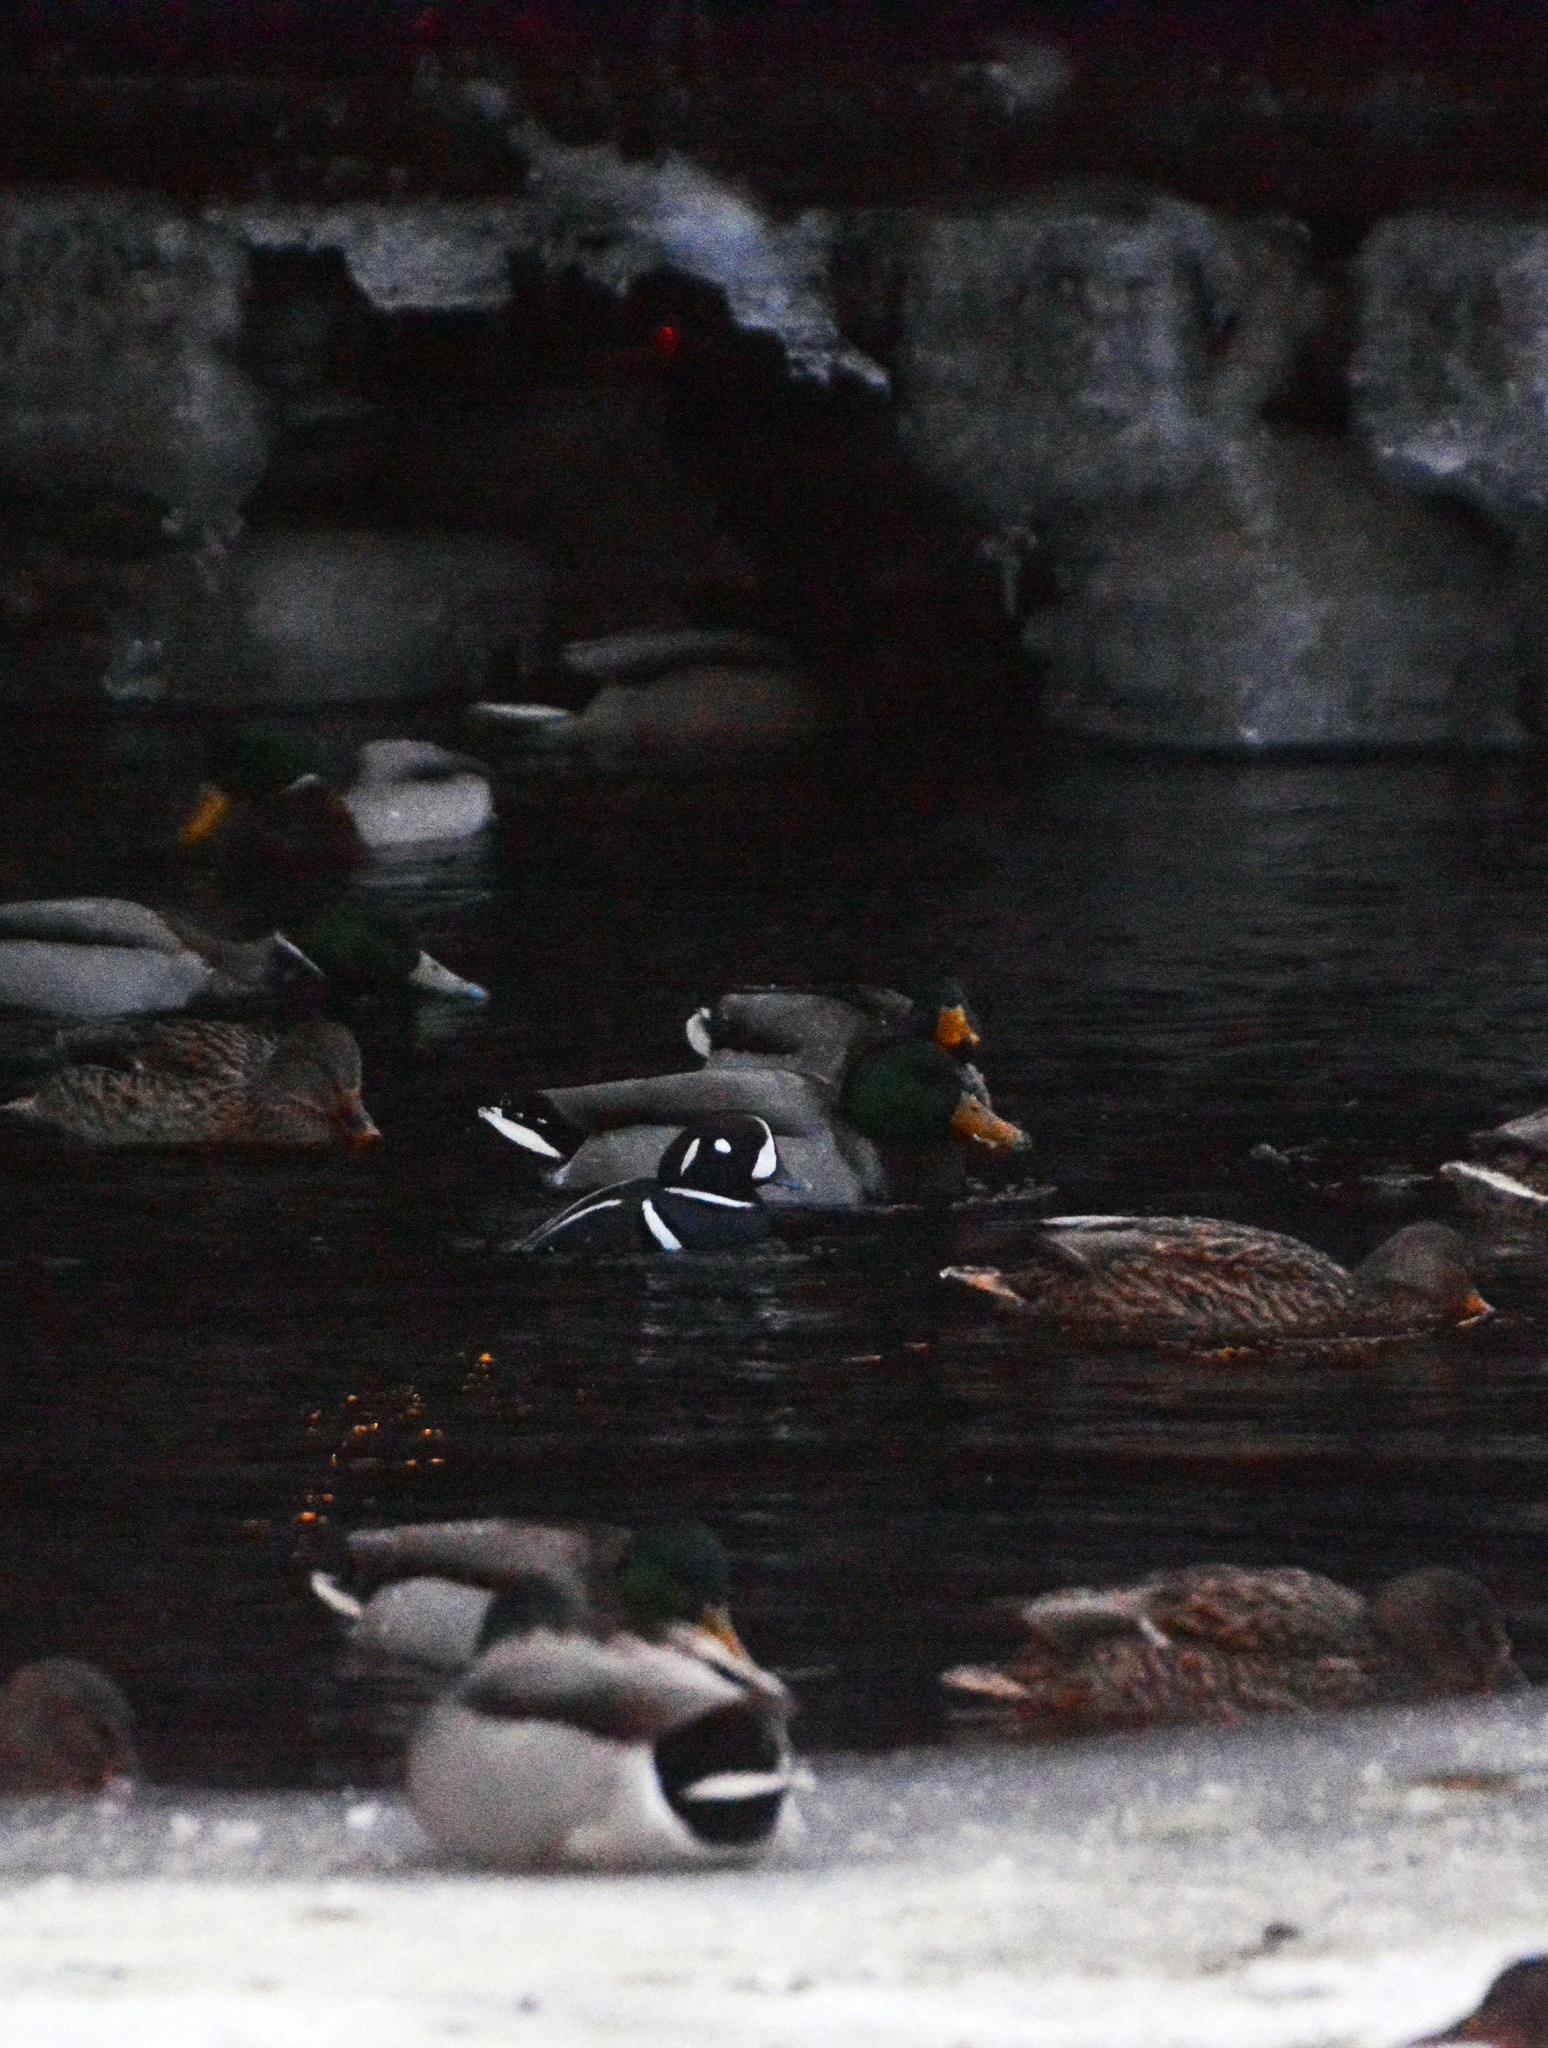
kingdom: Animalia
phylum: Chordata
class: Aves
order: Anseriformes
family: Anatidae
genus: Histrionicus
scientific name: Histrionicus histrionicus
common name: Harlequin duck
